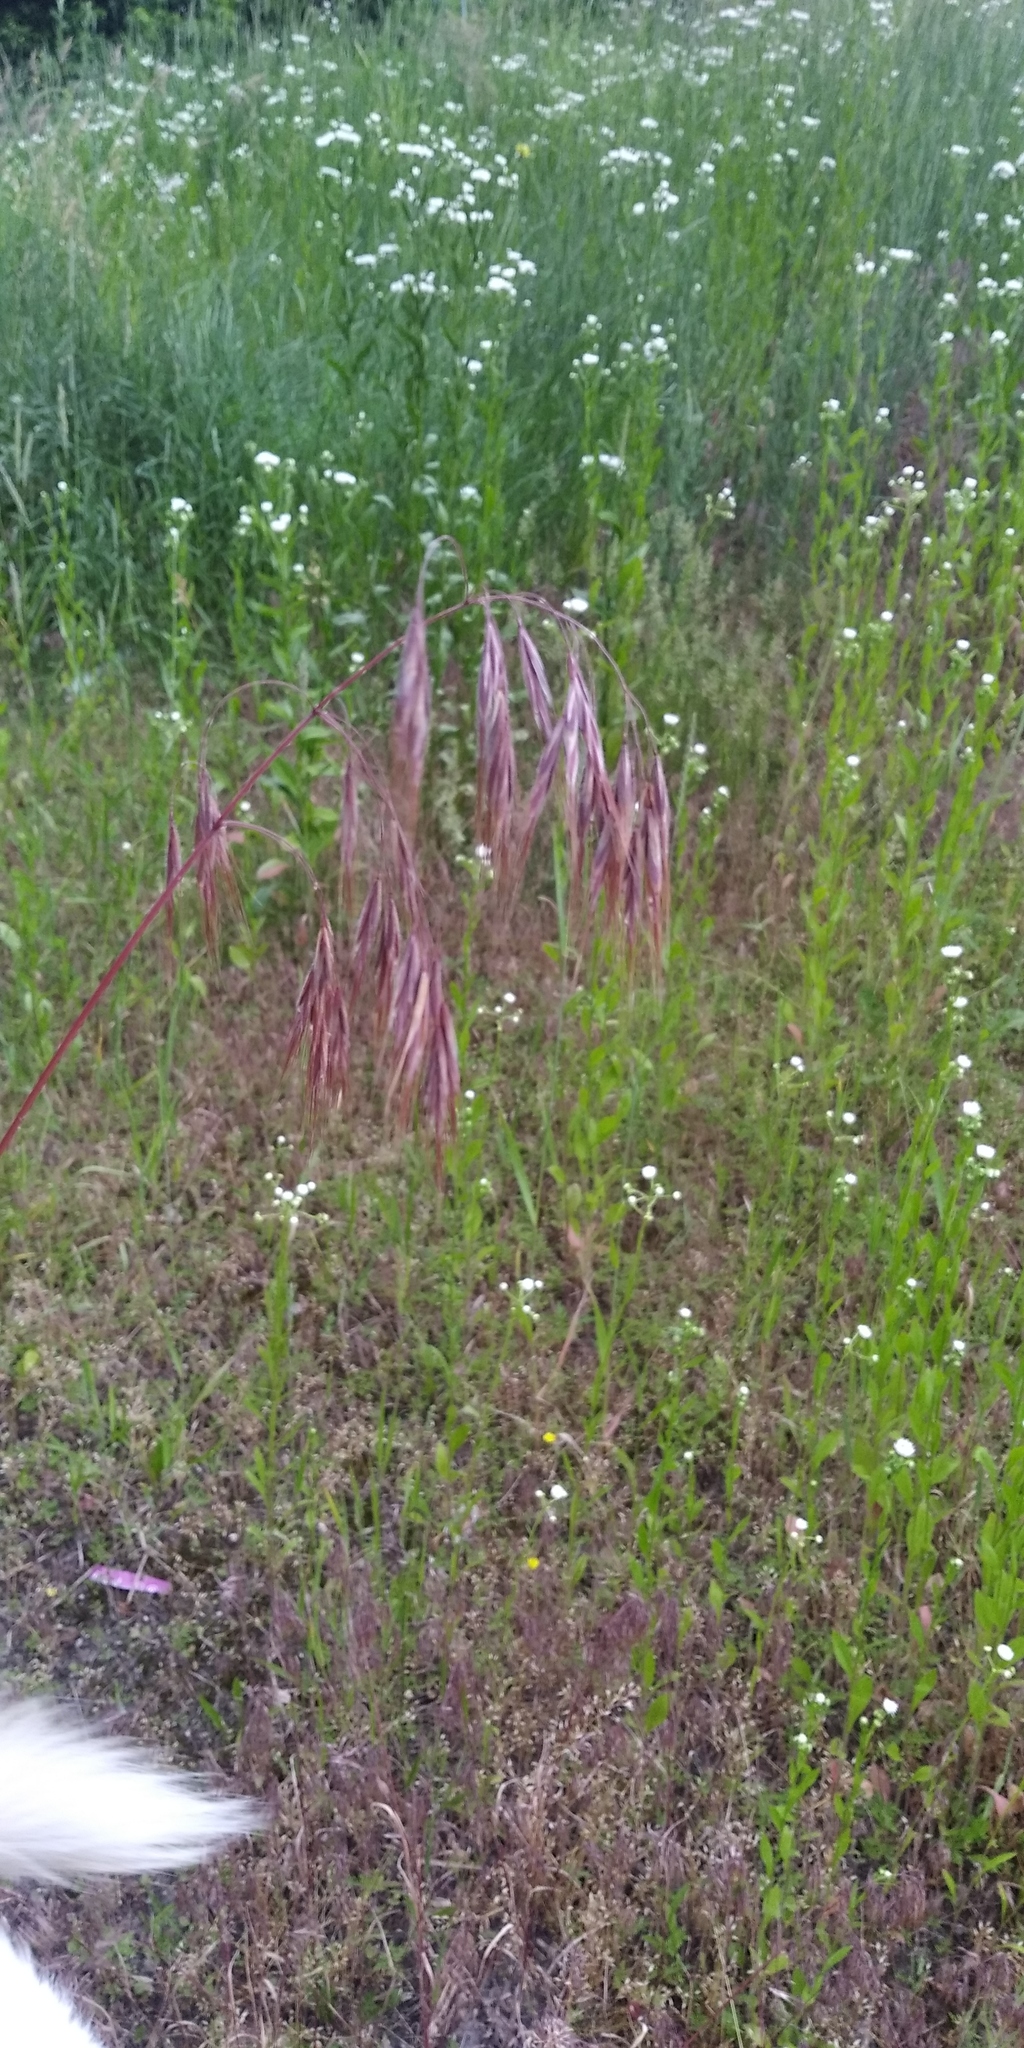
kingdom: Plantae
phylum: Tracheophyta
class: Liliopsida
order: Poales
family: Poaceae
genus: Bromus
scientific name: Bromus tectorum
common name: Cheatgrass
